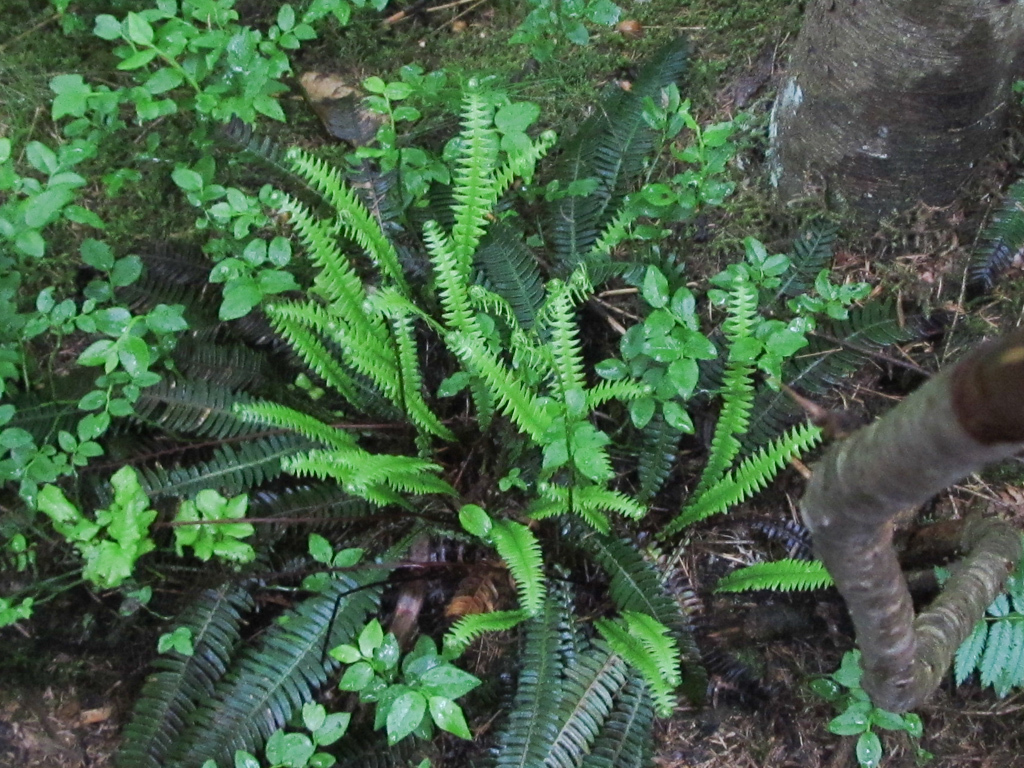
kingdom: Plantae
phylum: Tracheophyta
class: Polypodiopsida
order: Polypodiales
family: Blechnaceae
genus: Struthiopteris
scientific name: Struthiopteris spicant
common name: Deer fern
